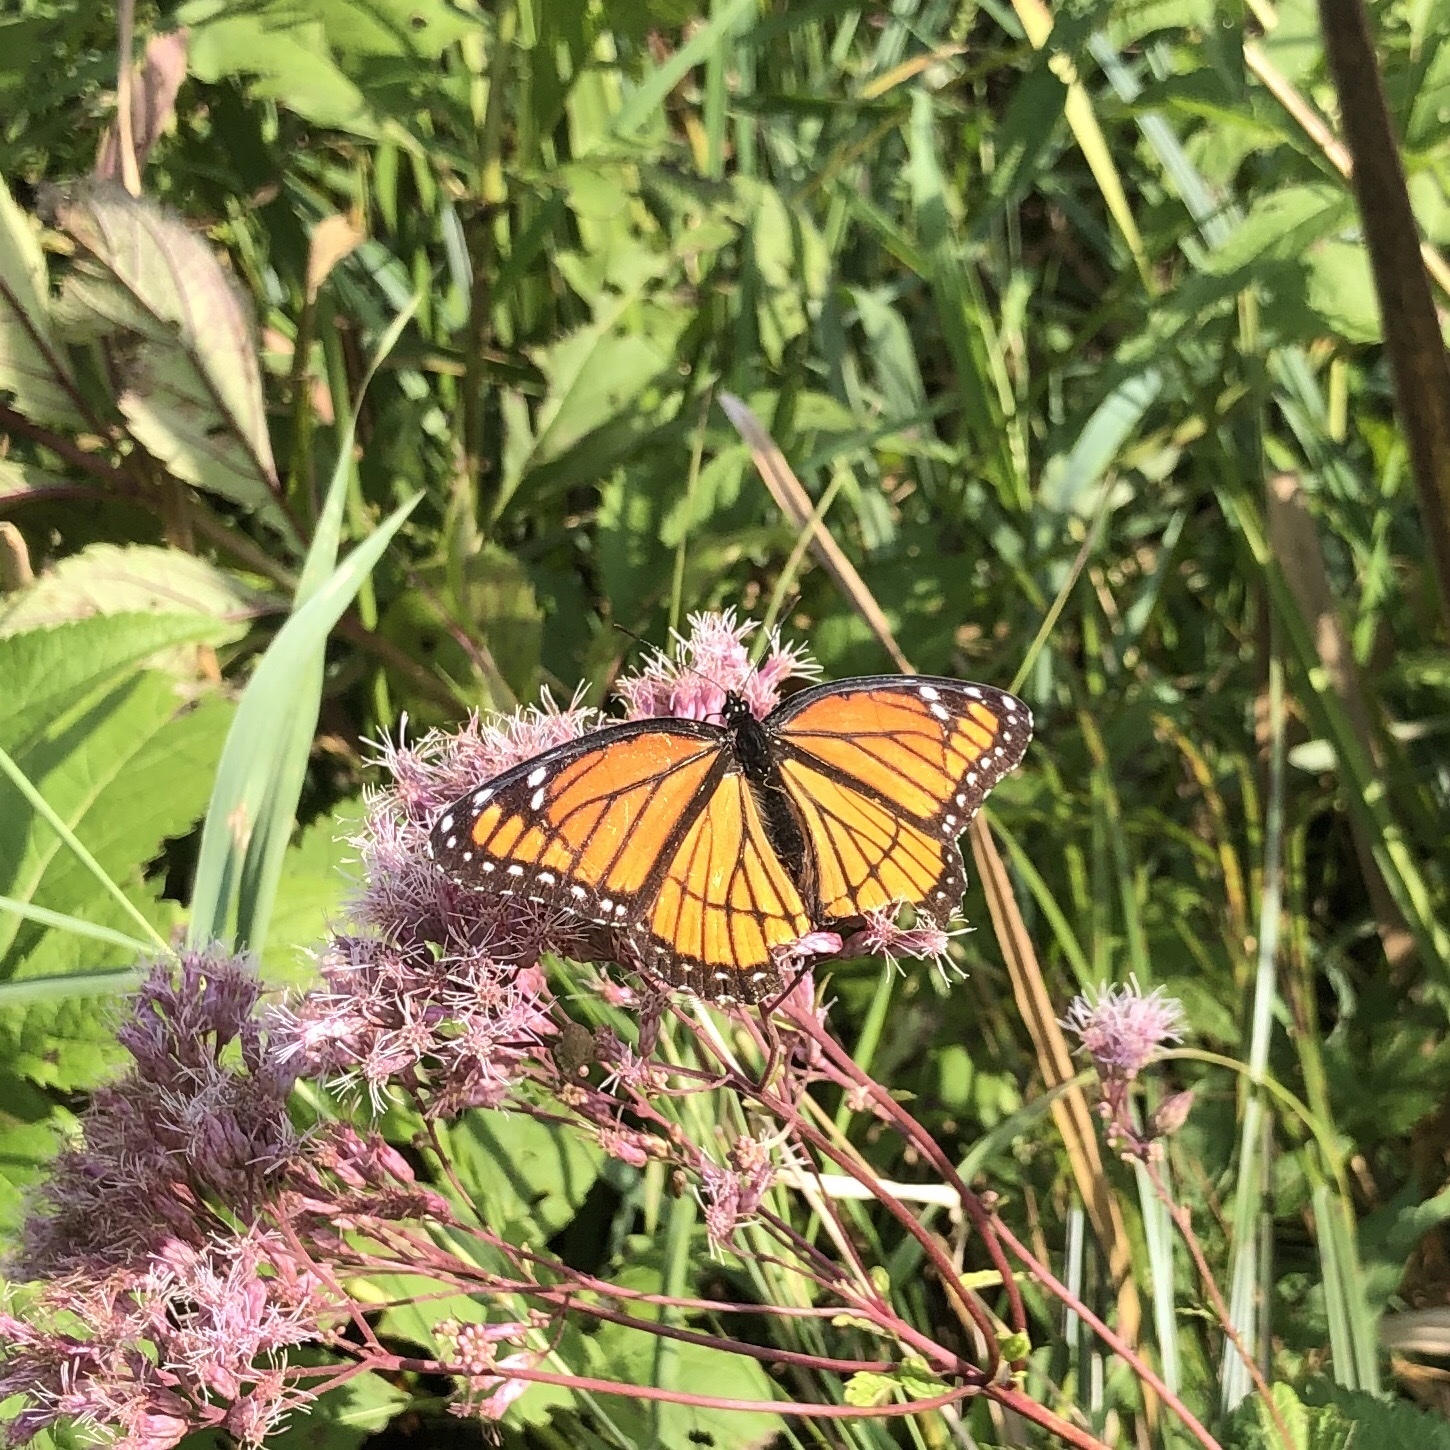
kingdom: Animalia
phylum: Arthropoda
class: Insecta
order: Lepidoptera
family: Nymphalidae
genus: Limenitis
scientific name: Limenitis archippus
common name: Viceroy
